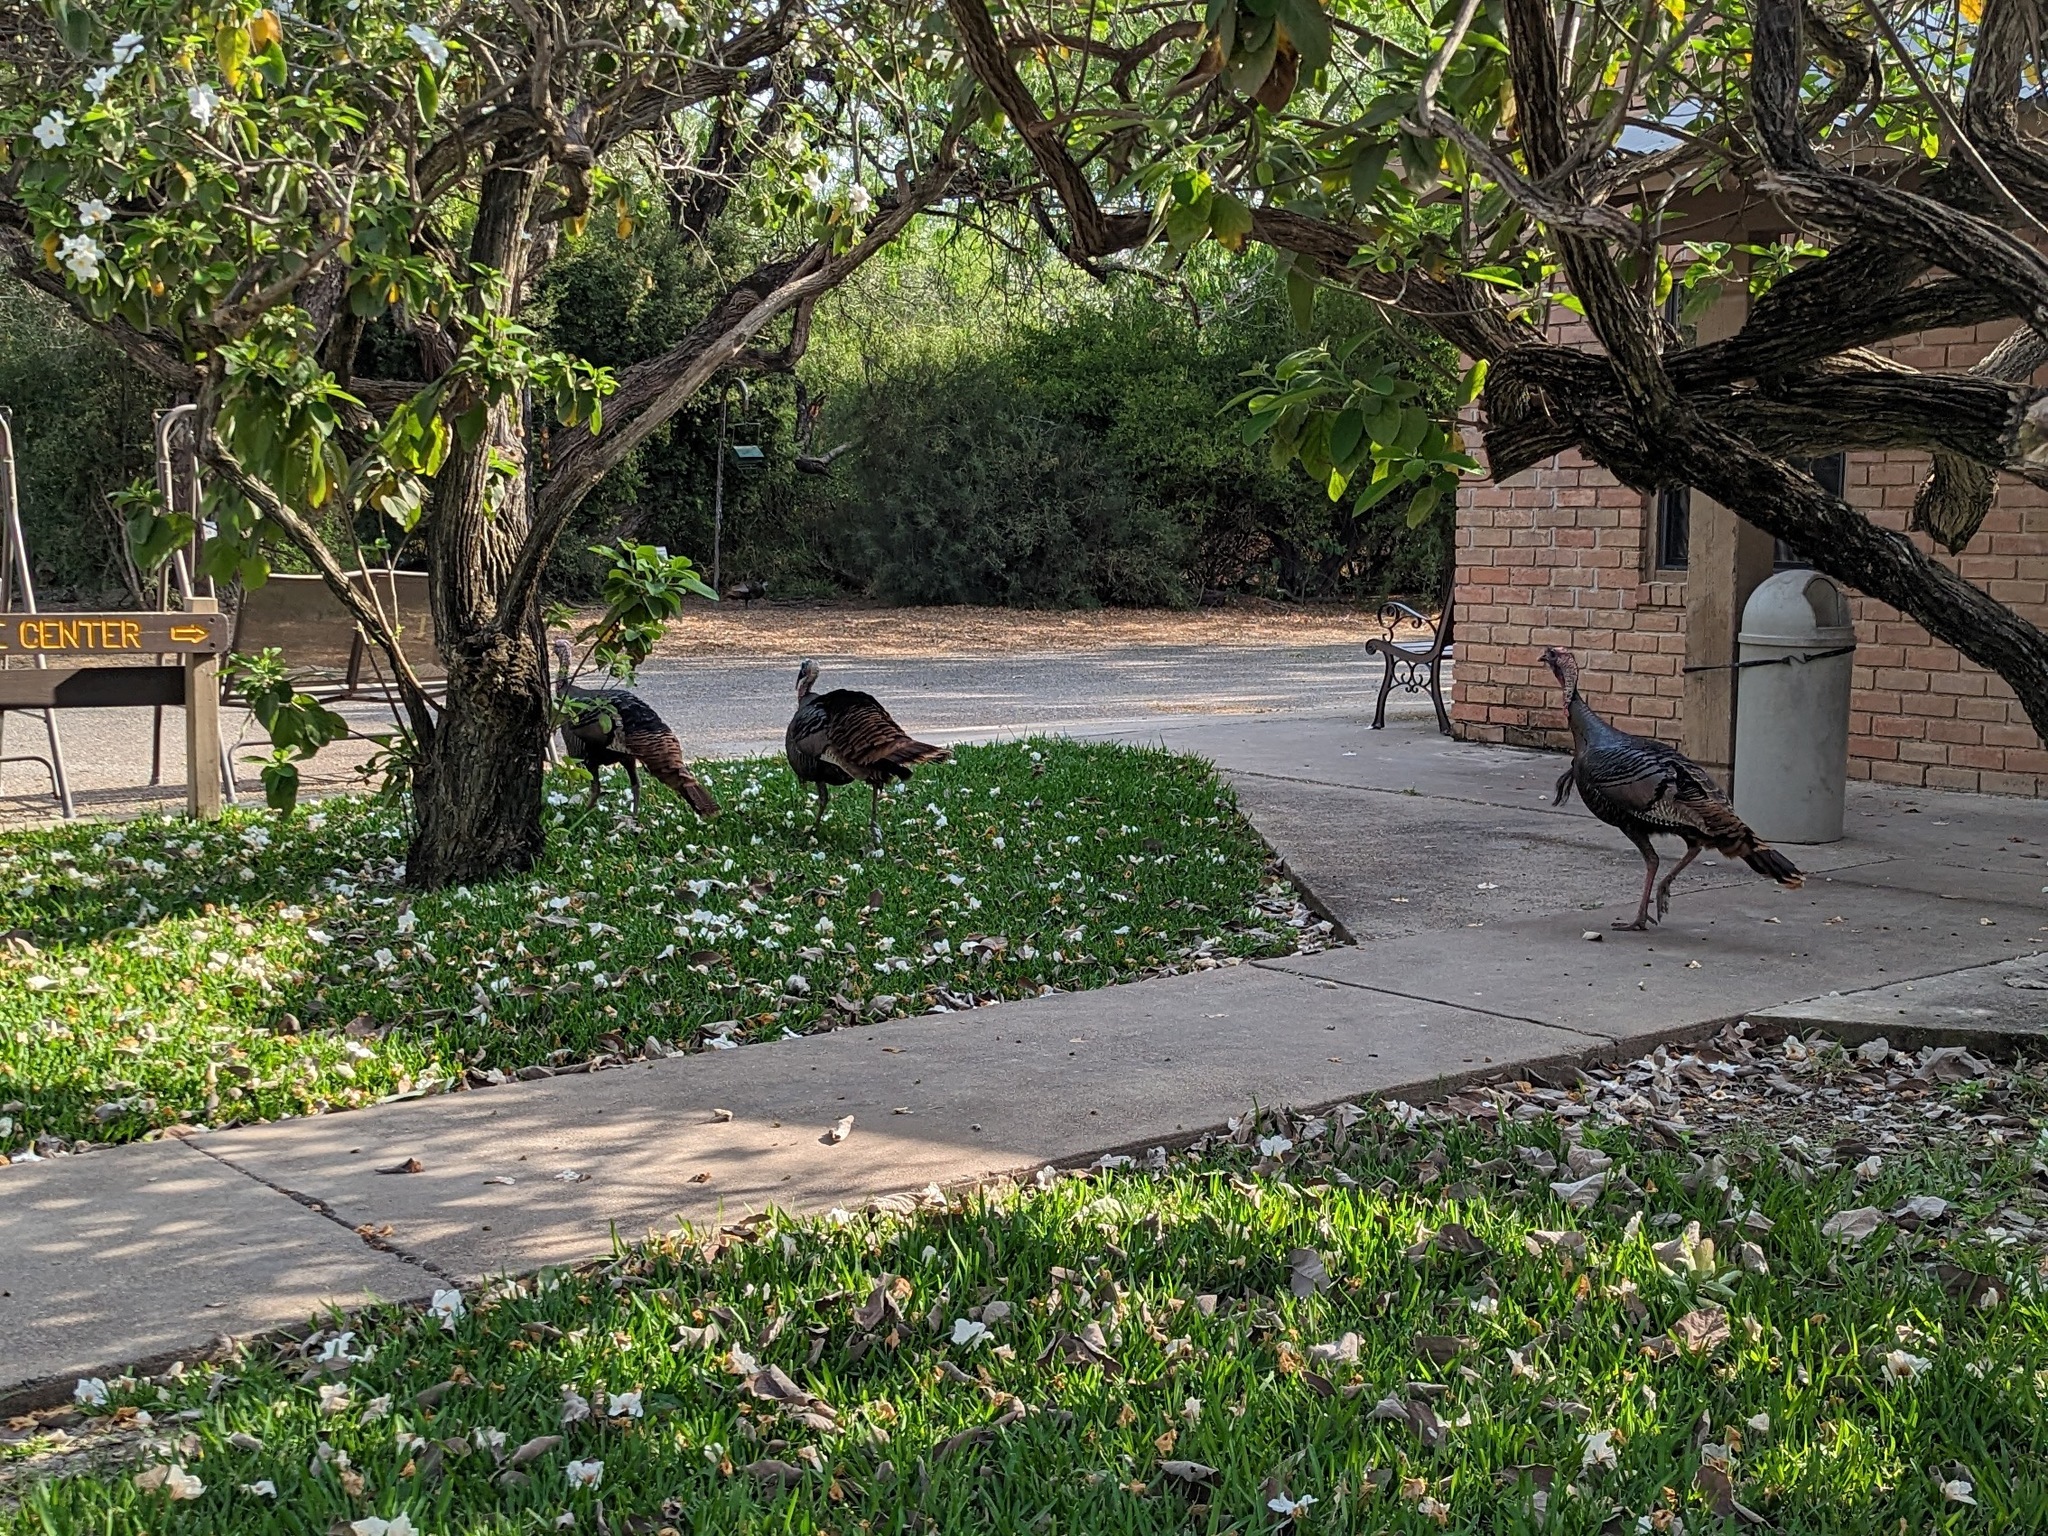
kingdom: Animalia
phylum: Chordata
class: Aves
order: Galliformes
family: Phasianidae
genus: Meleagris
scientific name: Meleagris gallopavo
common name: Wild turkey
